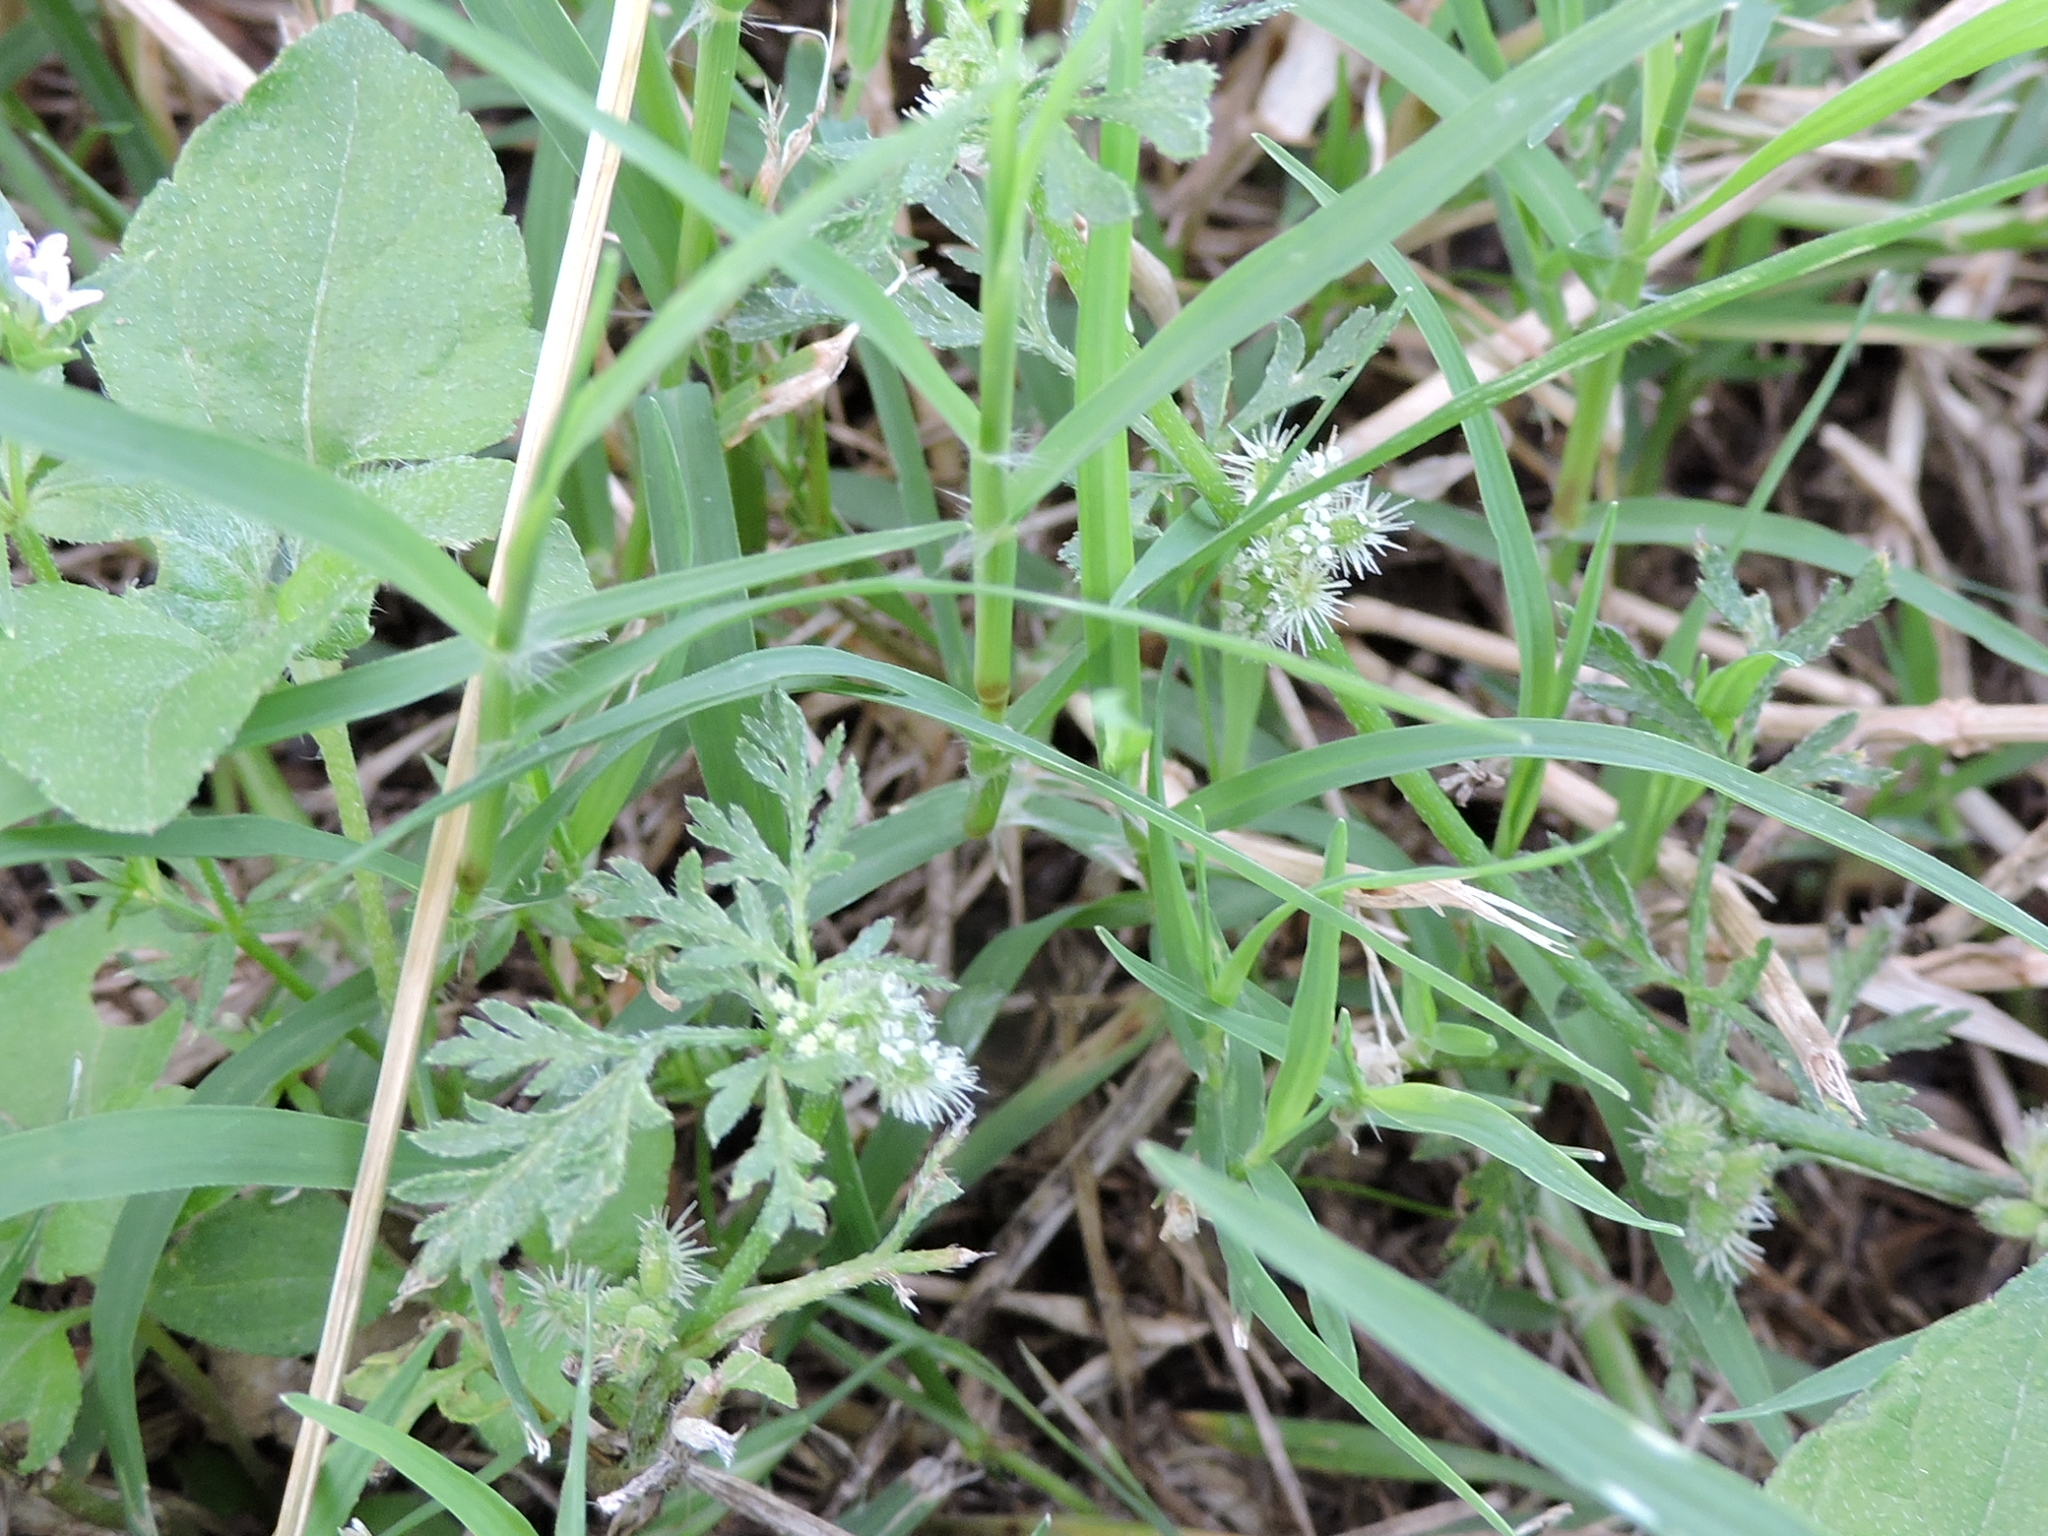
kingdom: Plantae
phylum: Tracheophyta
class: Magnoliopsida
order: Apiales
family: Apiaceae
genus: Torilis
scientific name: Torilis nodosa
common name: Knotted hedge-parsley
